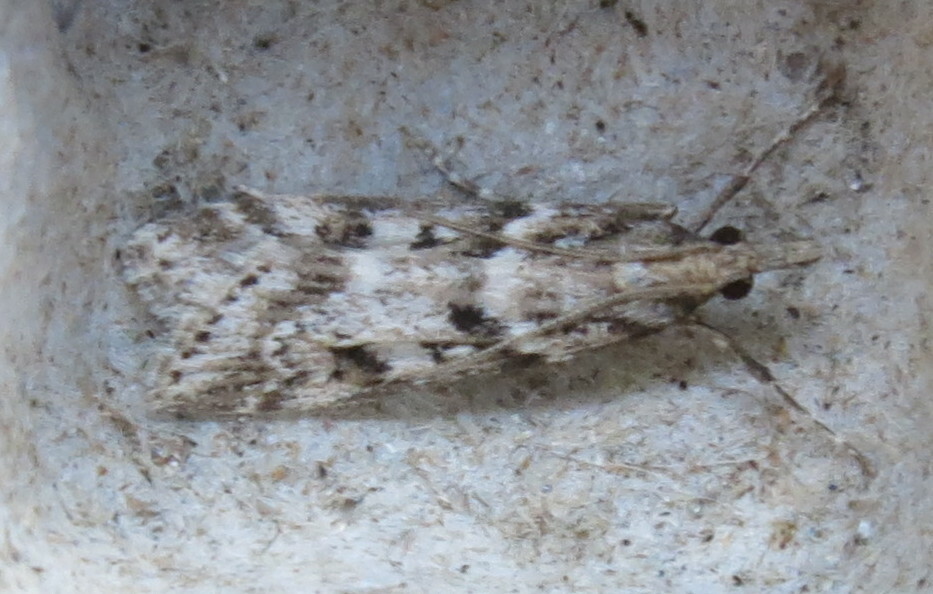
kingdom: Animalia
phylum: Arthropoda
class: Insecta
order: Lepidoptera
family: Crambidae
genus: Eudonia
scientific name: Eudonia angustea
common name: Narrow-winged grey
